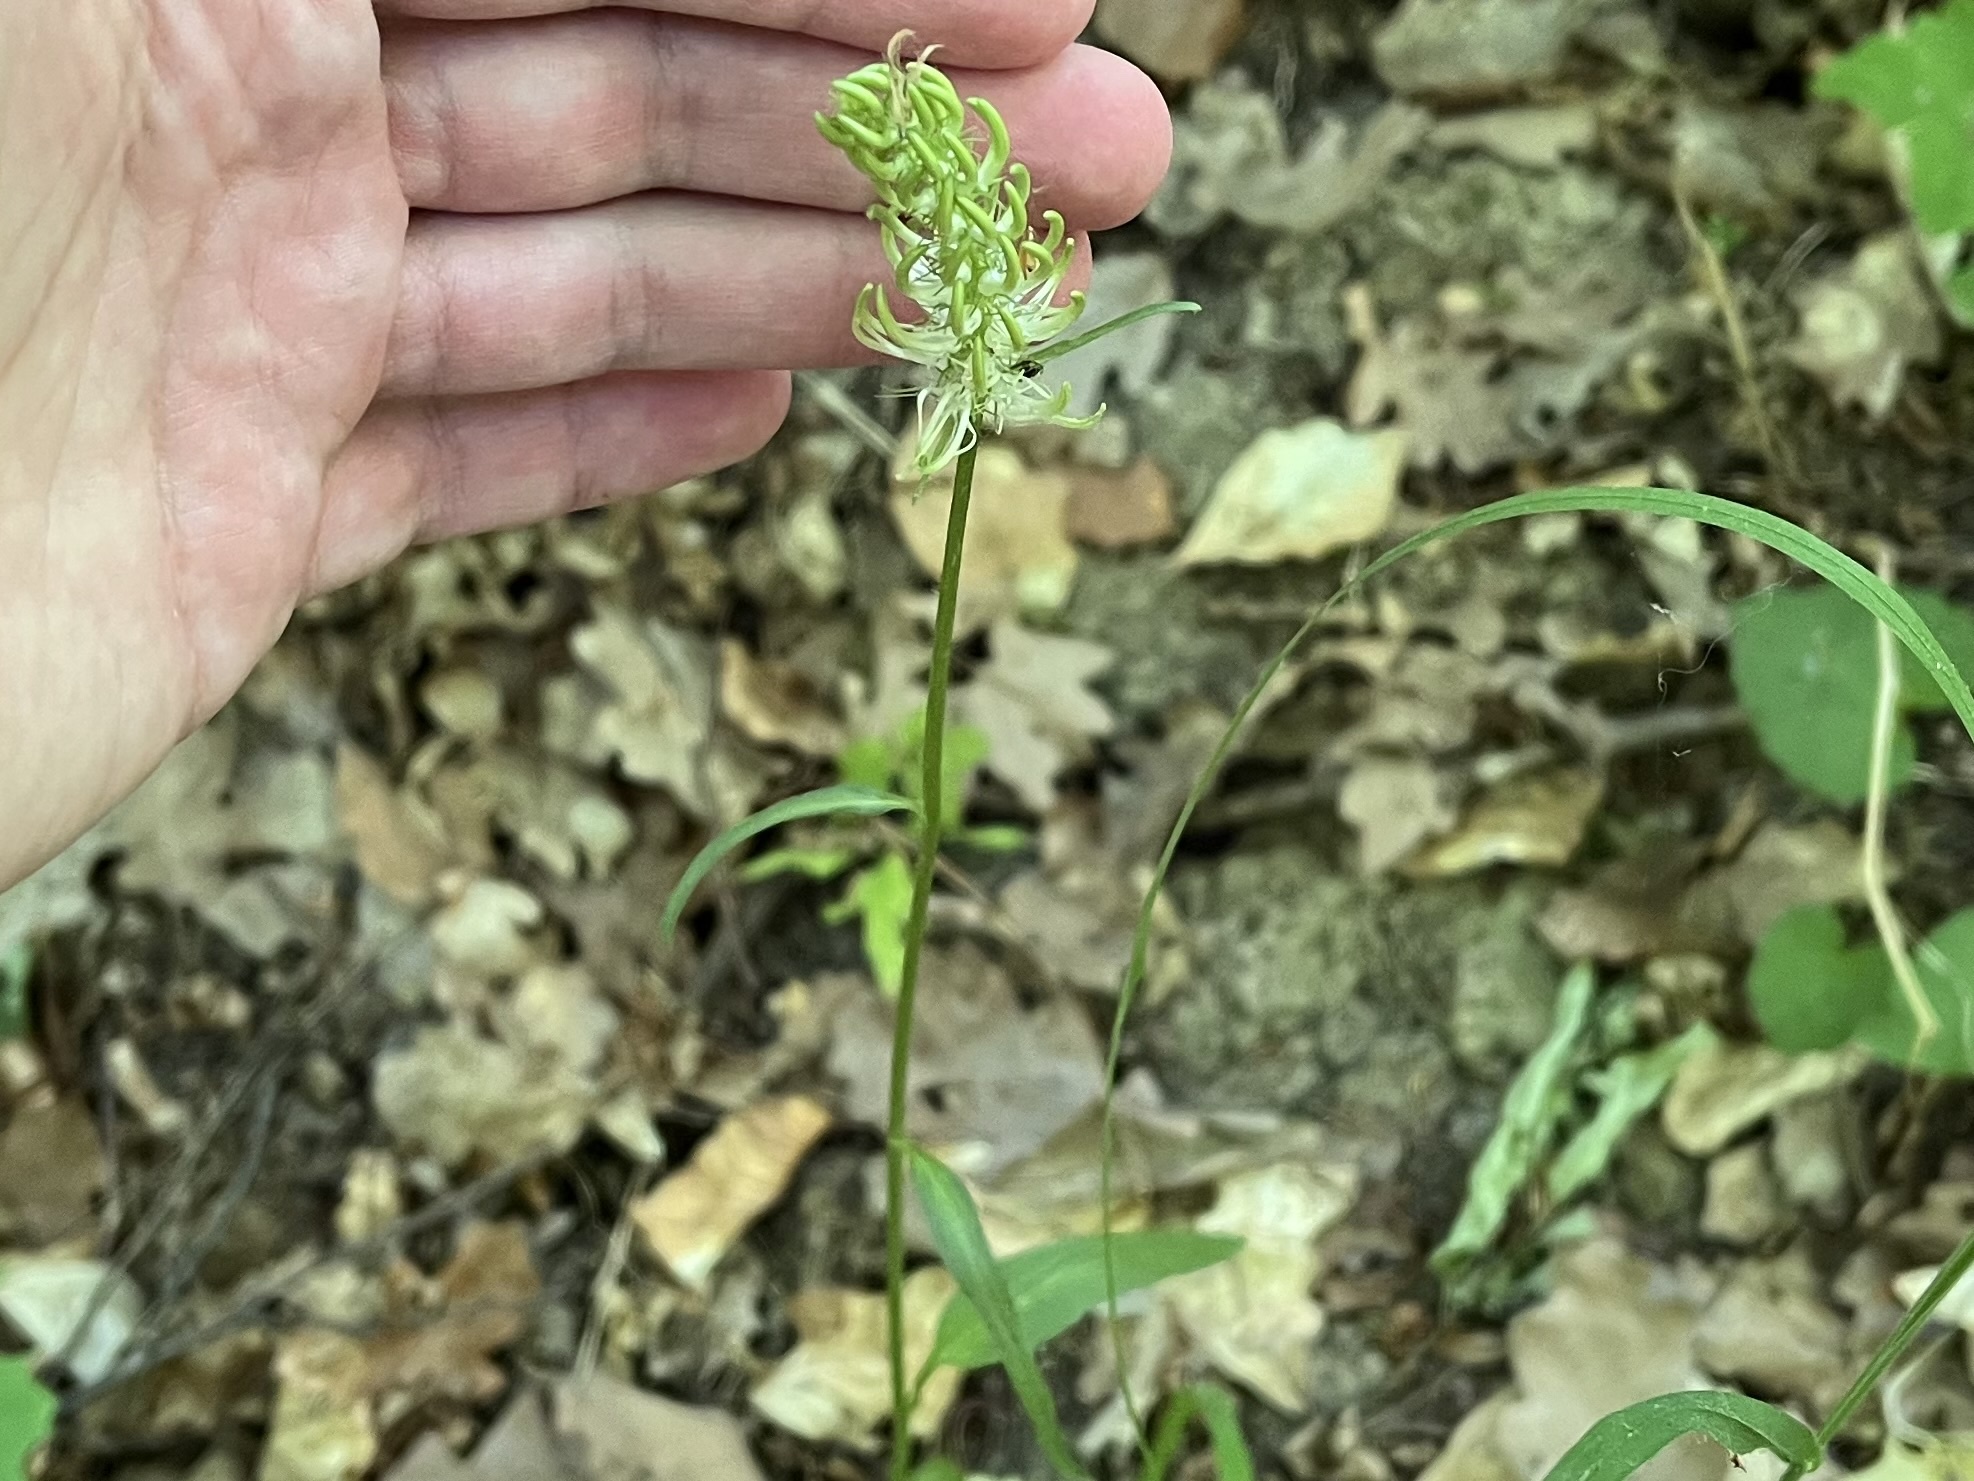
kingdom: Plantae
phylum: Tracheophyta
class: Magnoliopsida
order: Asterales
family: Campanulaceae
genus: Phyteuma
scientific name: Phyteuma spicatum
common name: Spiked rampion
